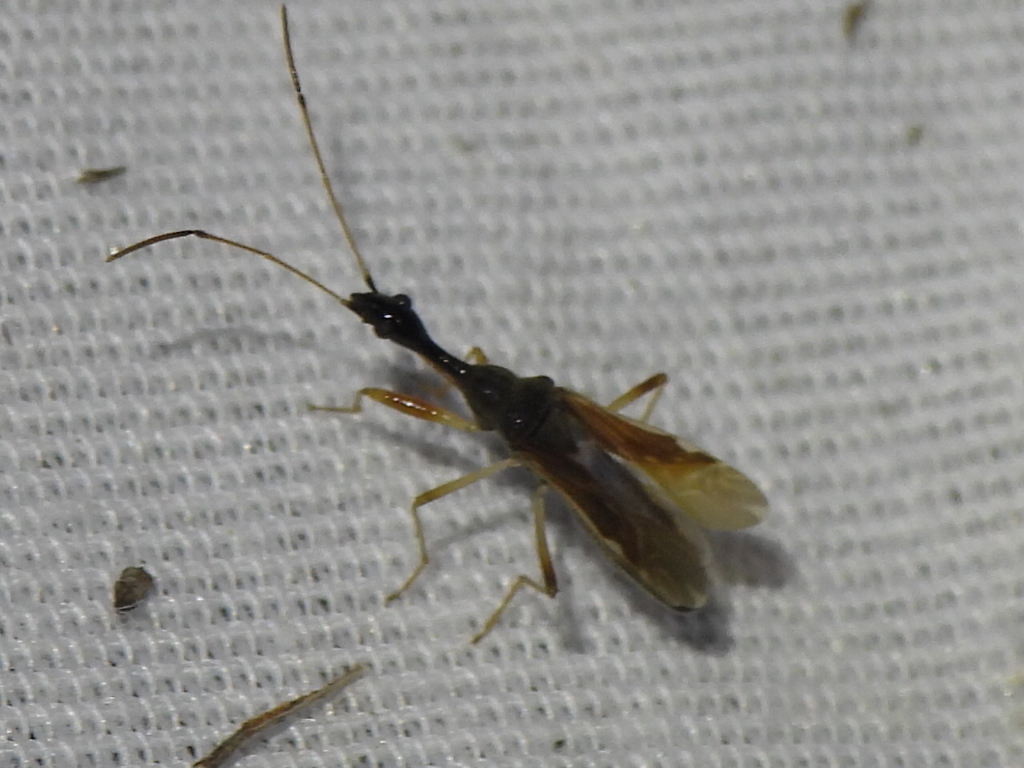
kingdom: Animalia
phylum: Arthropoda
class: Insecta
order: Hemiptera
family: Rhyparochromidae
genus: Myodocha
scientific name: Myodocha serripes
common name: Long-necked seed bug
